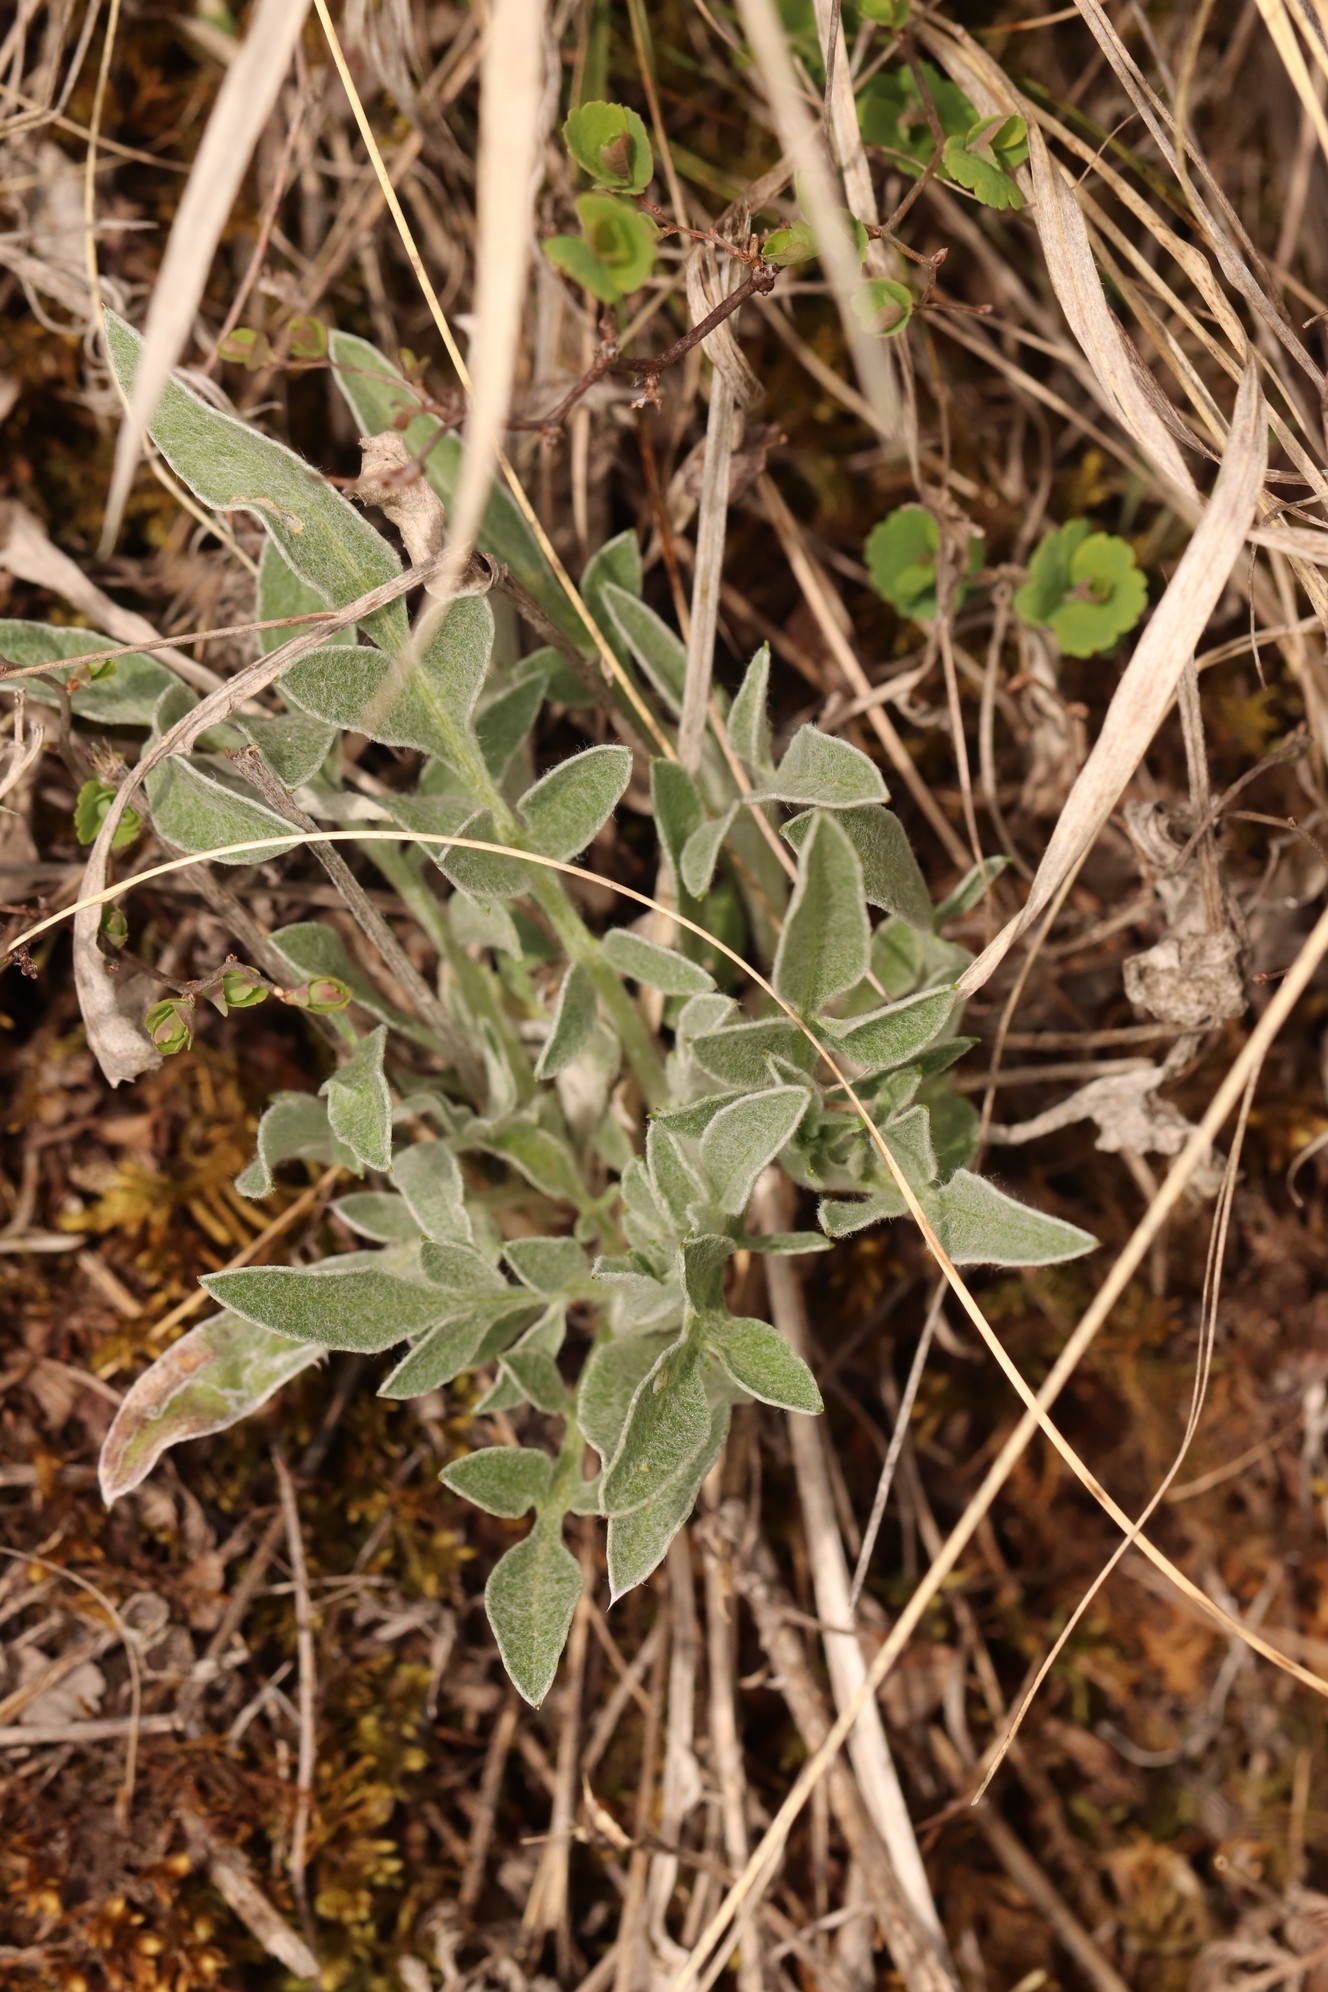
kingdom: Plantae
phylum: Tracheophyta
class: Magnoliopsida
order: Asterales
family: Asteraceae
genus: Psephellus
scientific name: Psephellus sibiricus
